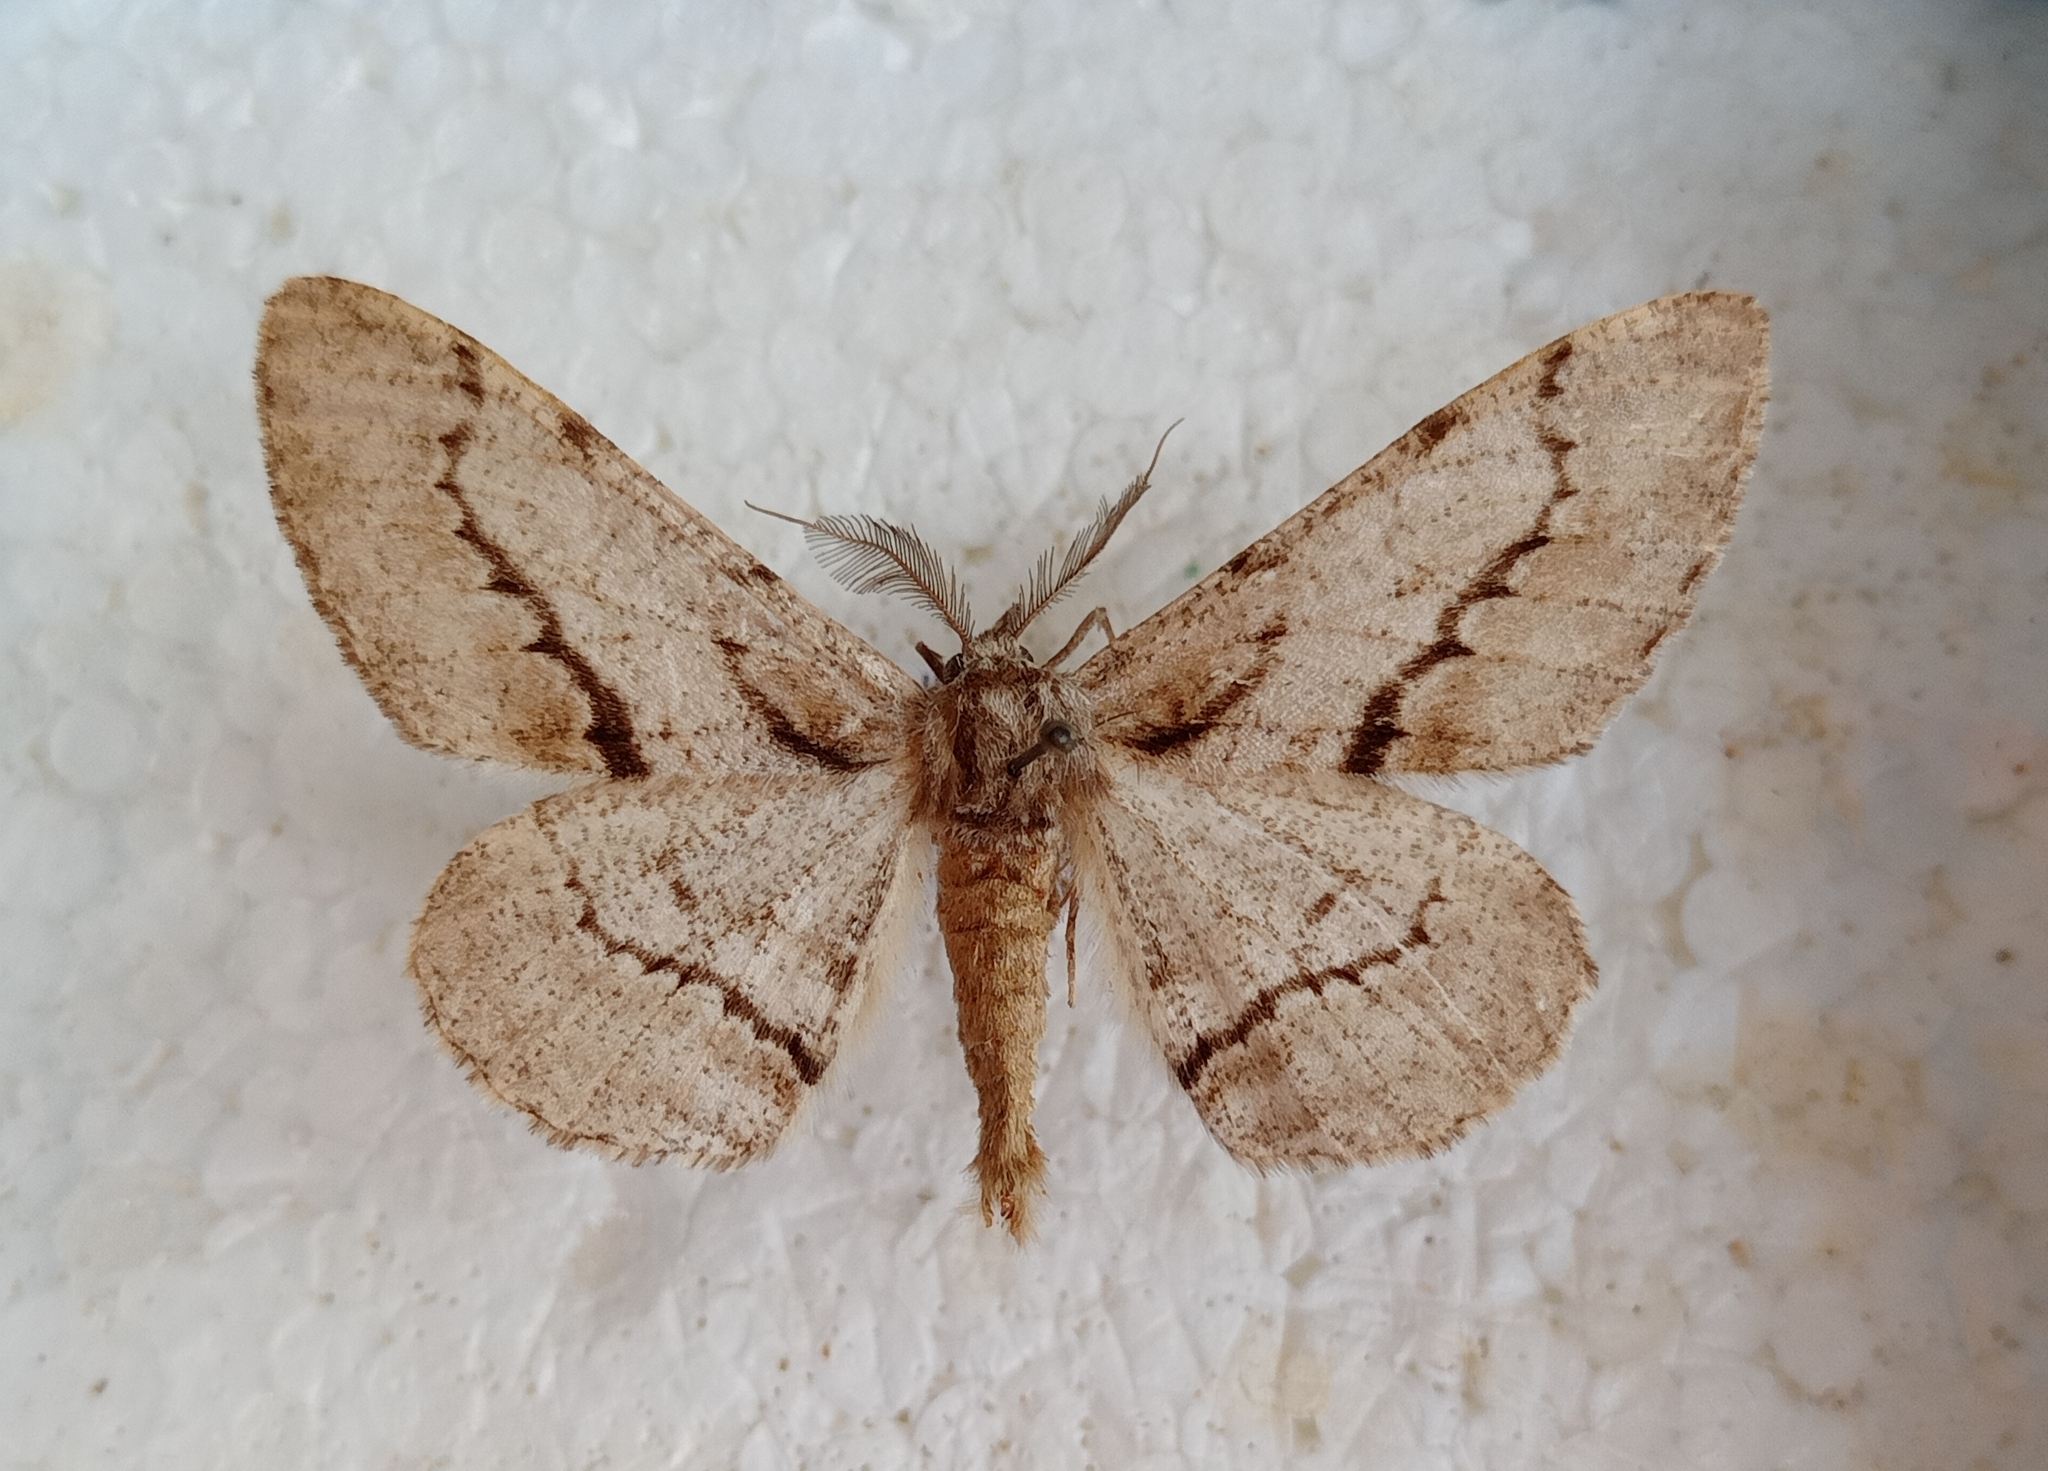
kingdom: Animalia
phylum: Arthropoda
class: Insecta
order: Lepidoptera
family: Geometridae
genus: Phthonosema
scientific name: Phthonosema tendinosaria
